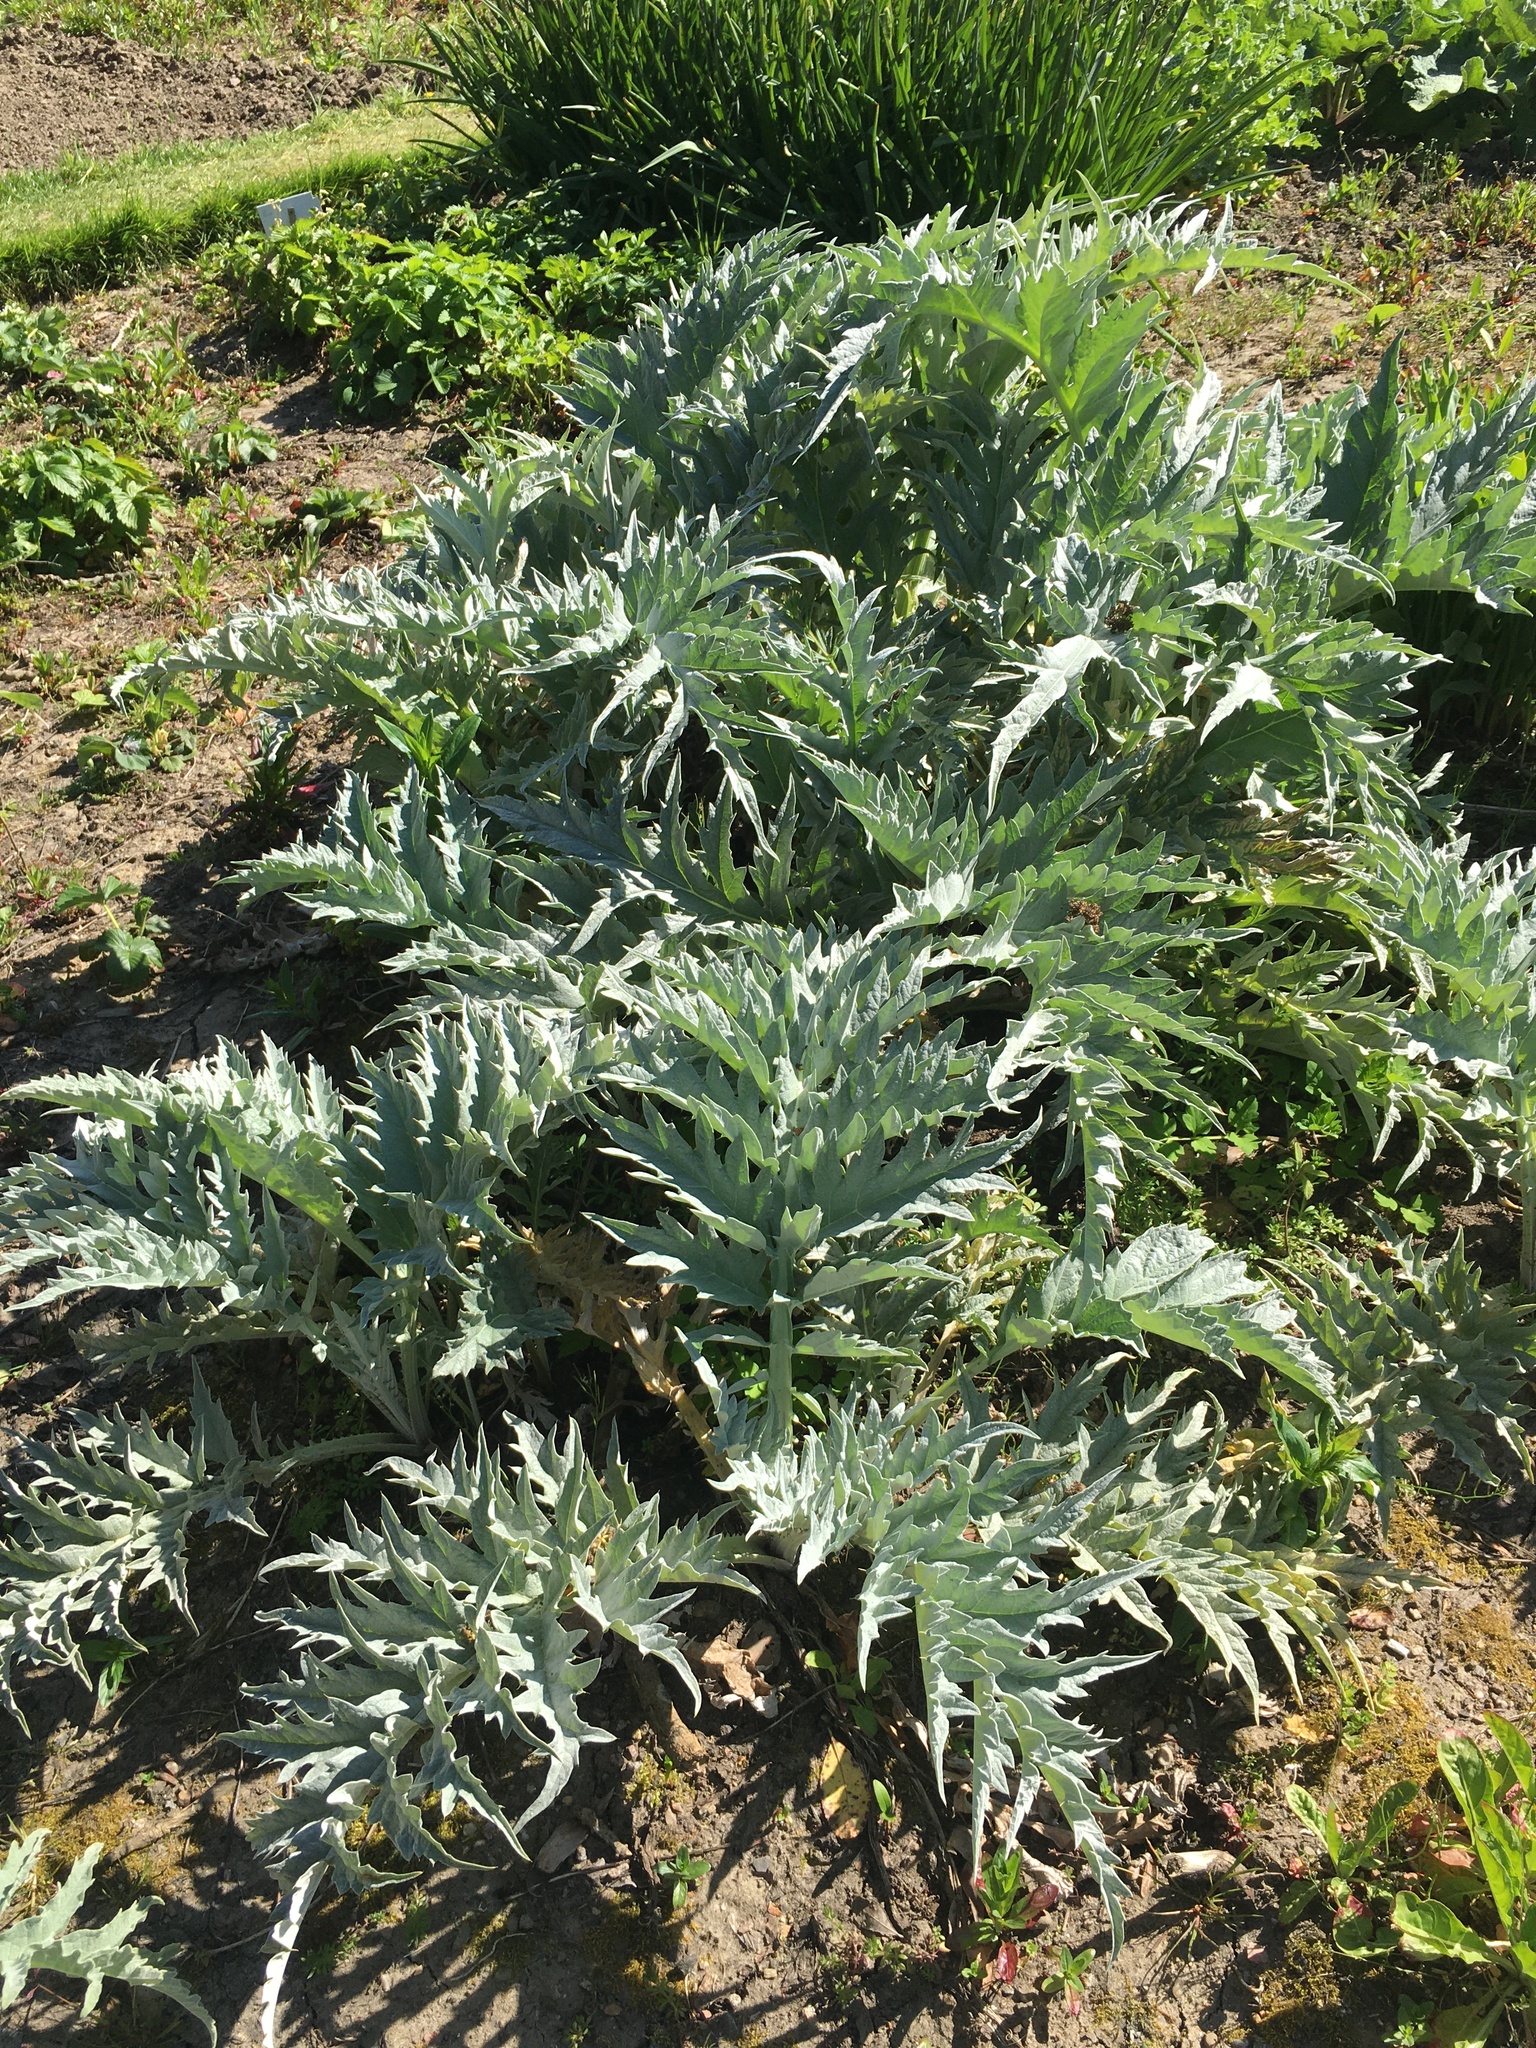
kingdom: Plantae
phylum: Tracheophyta
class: Magnoliopsida
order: Asterales
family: Asteraceae
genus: Cynara
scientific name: Cynara cardunculus
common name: Globe artichoke
